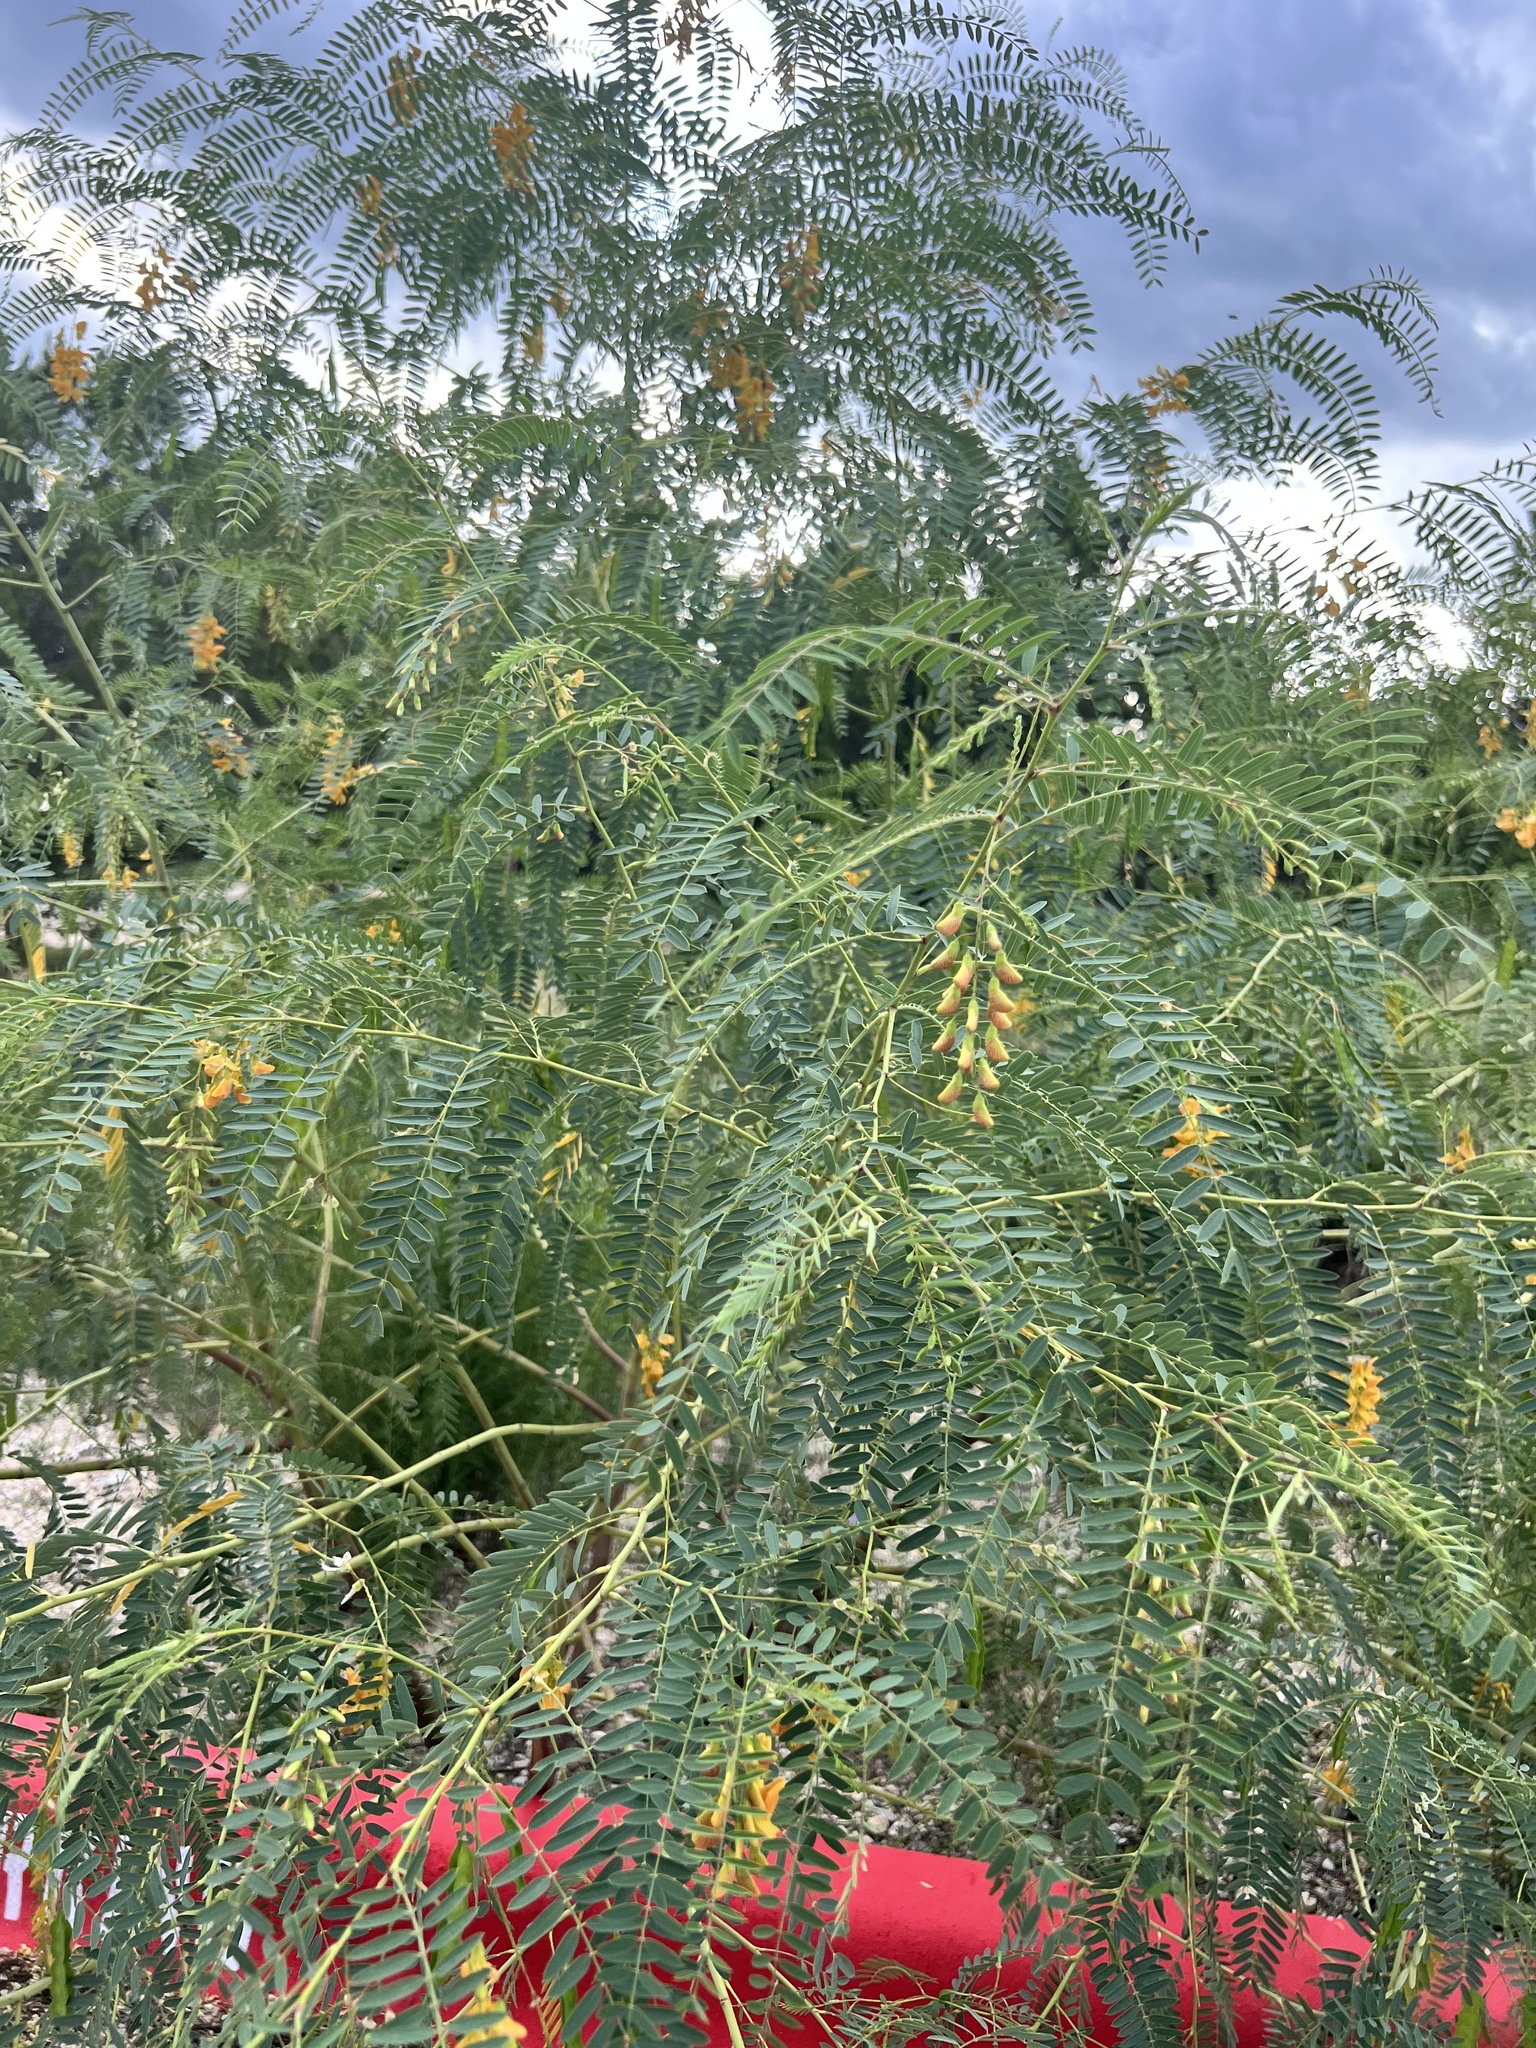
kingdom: Plantae
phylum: Tracheophyta
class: Magnoliopsida
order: Fabales
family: Fabaceae
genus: Sesbania
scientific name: Sesbania drummondii
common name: Poison-bean
